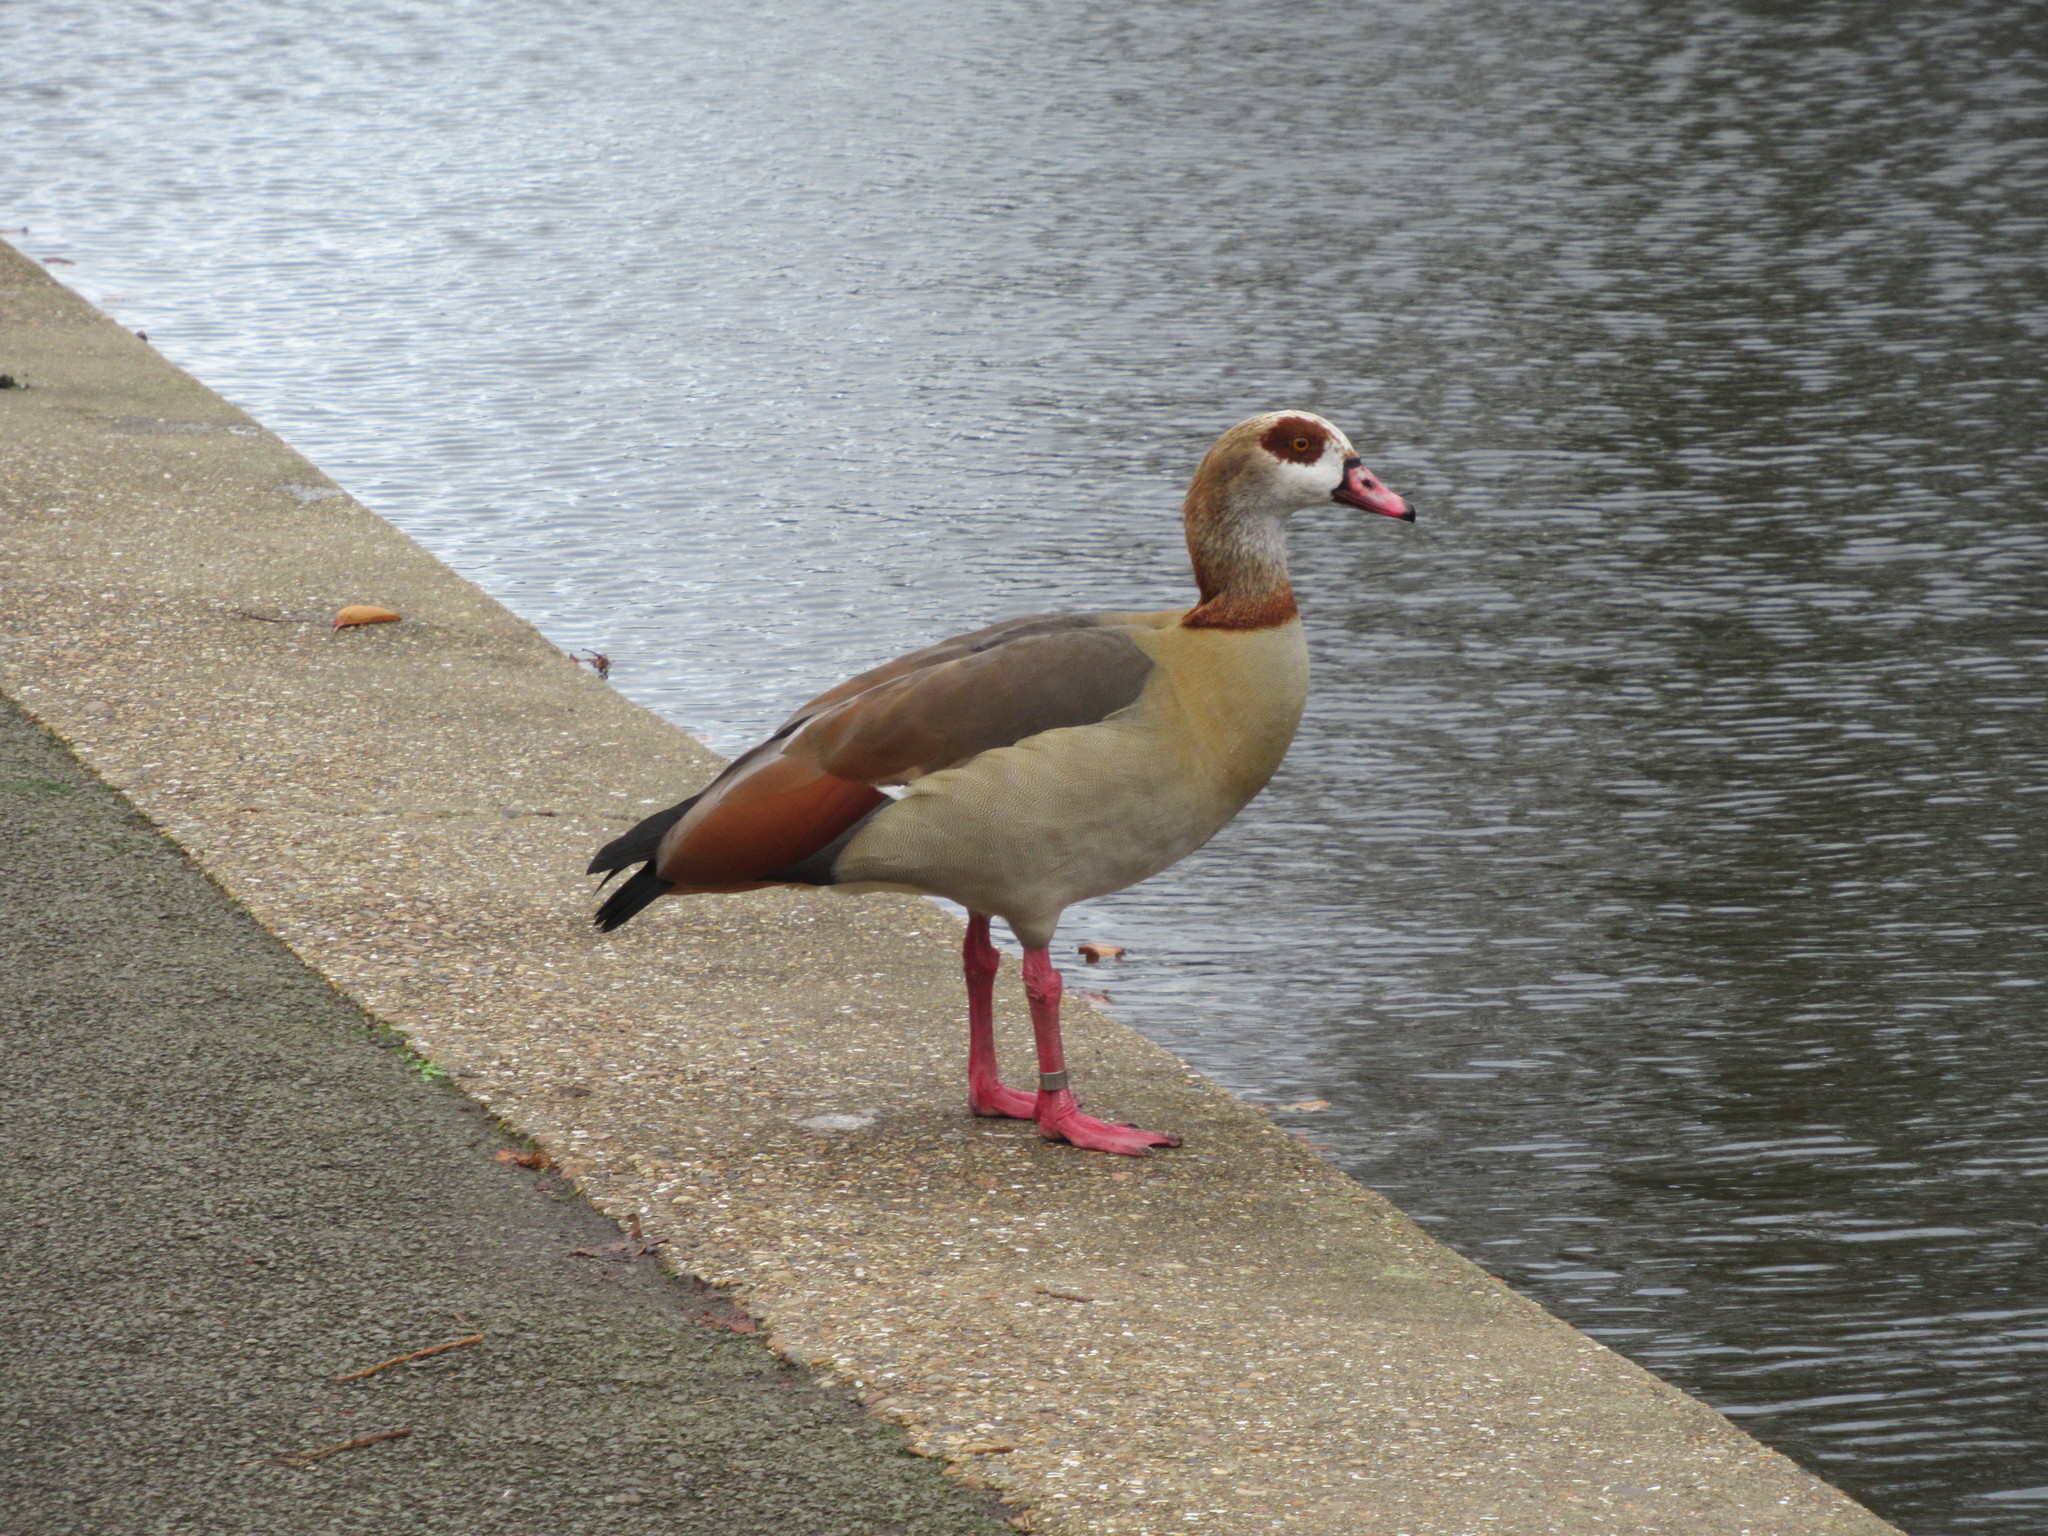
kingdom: Animalia
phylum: Chordata
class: Aves
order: Anseriformes
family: Anatidae
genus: Alopochen
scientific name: Alopochen aegyptiaca
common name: Egyptian goose
